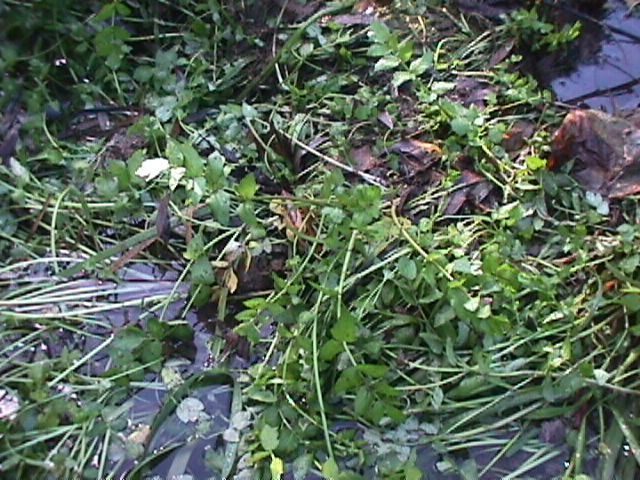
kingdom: Plantae
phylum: Tracheophyta
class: Magnoliopsida
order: Apiales
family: Apiaceae
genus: Helosciadium
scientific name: Helosciadium nodiflorum
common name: Fool's-watercress
